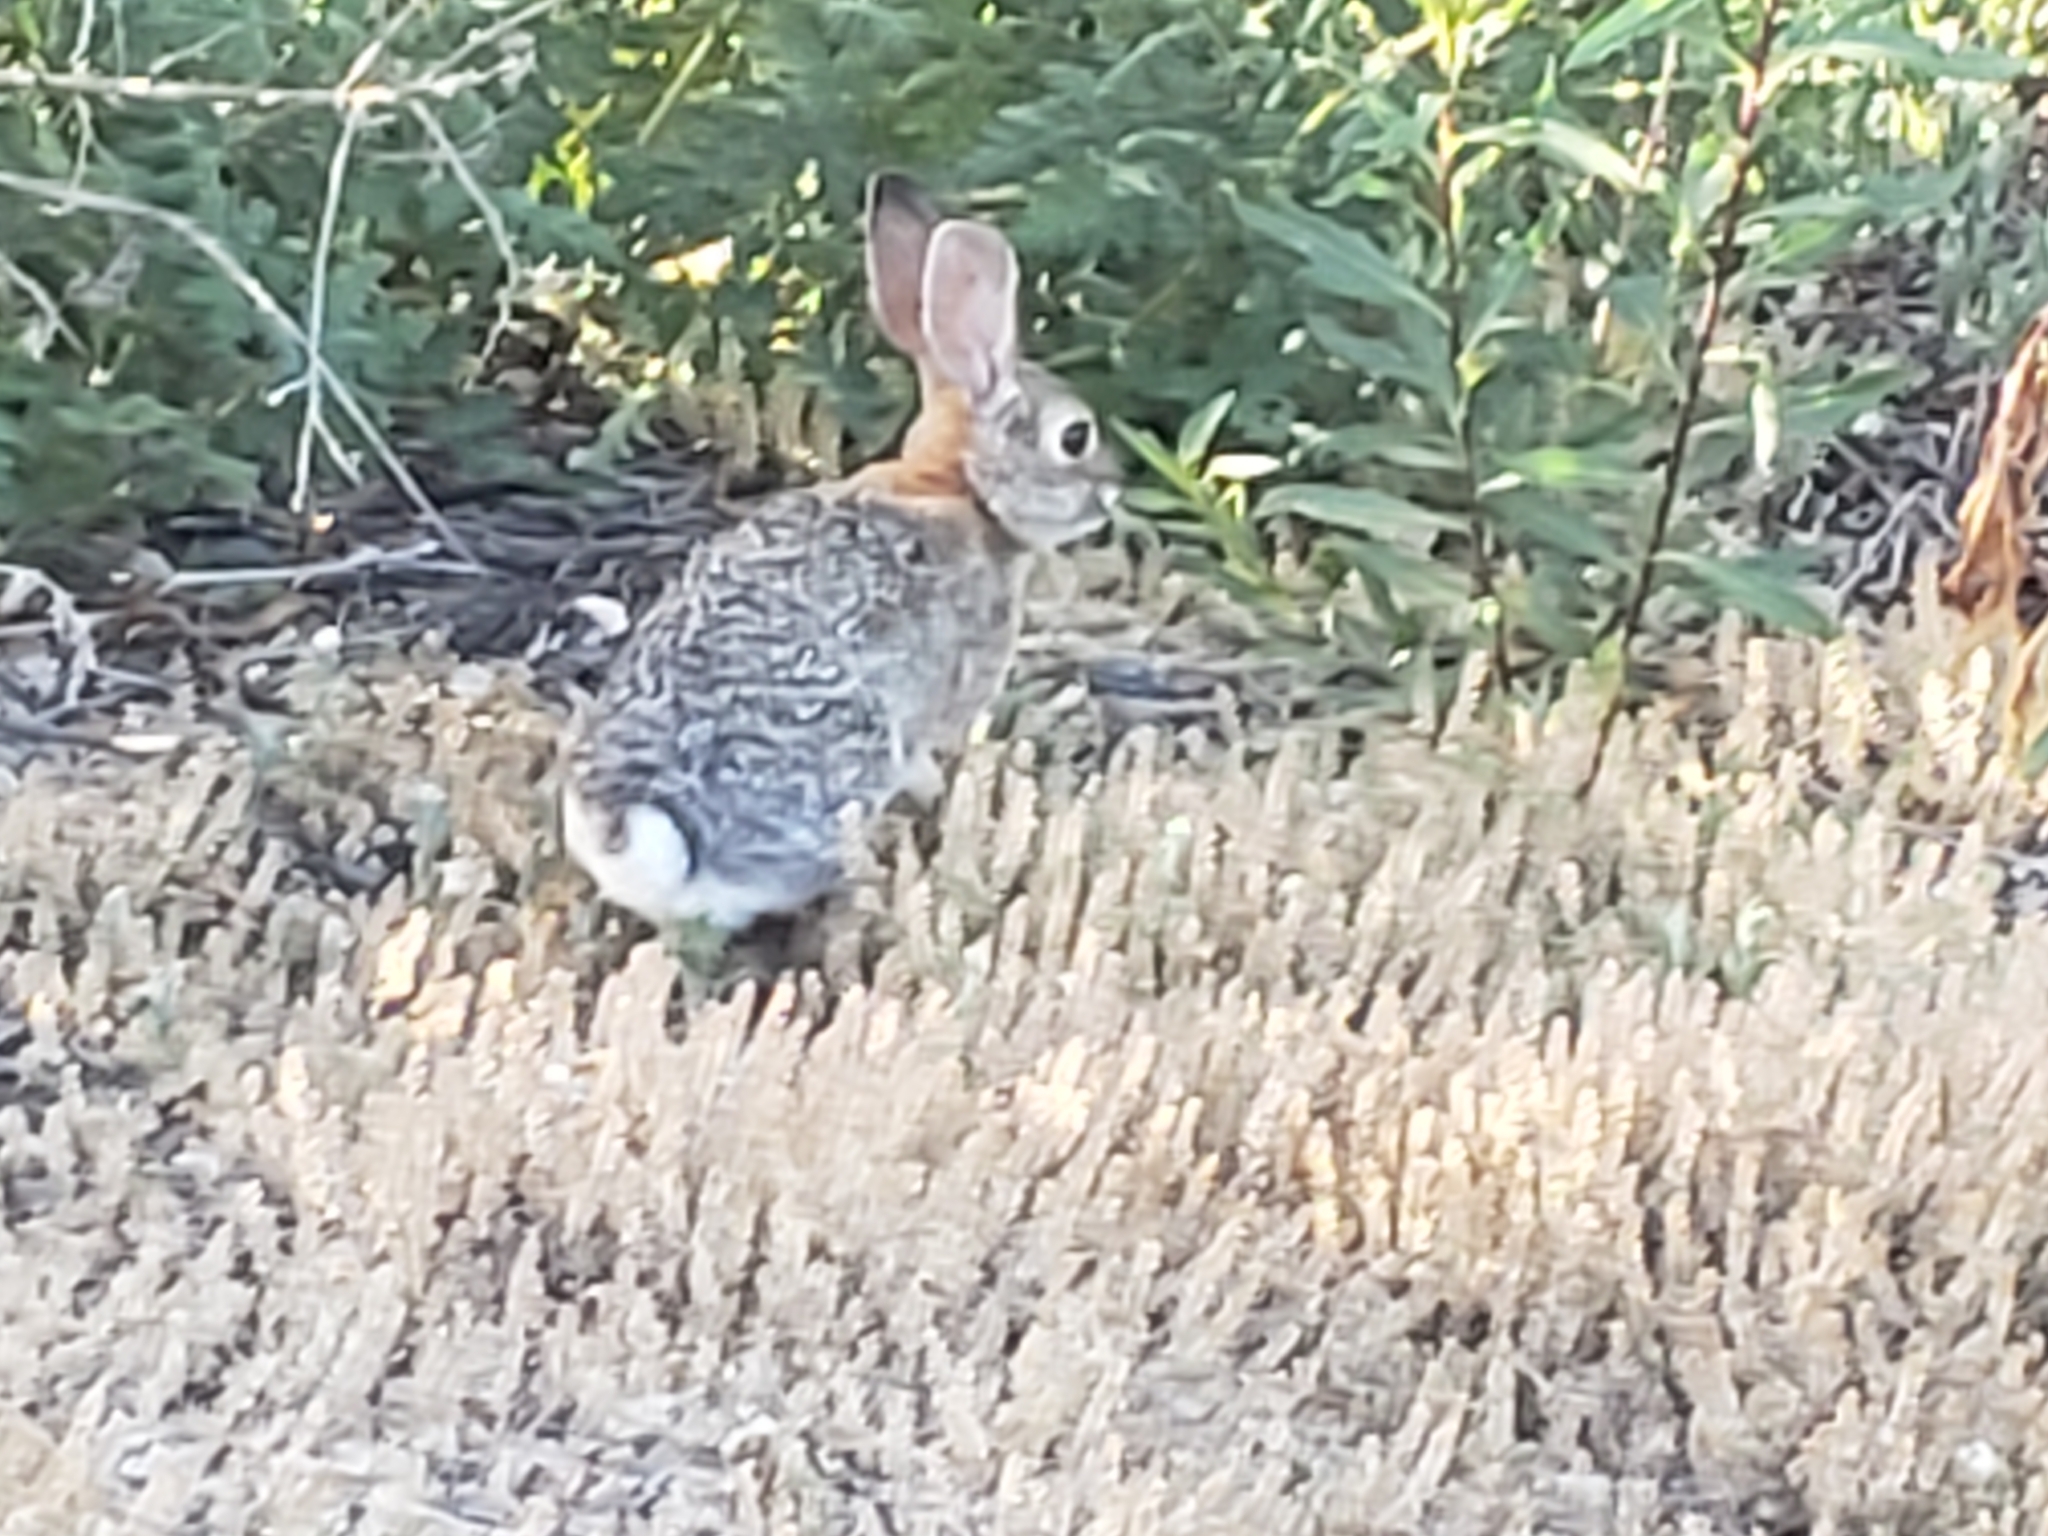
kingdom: Animalia
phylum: Chordata
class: Mammalia
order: Lagomorpha
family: Leporidae
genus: Sylvilagus
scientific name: Sylvilagus audubonii
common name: Desert cottontail
